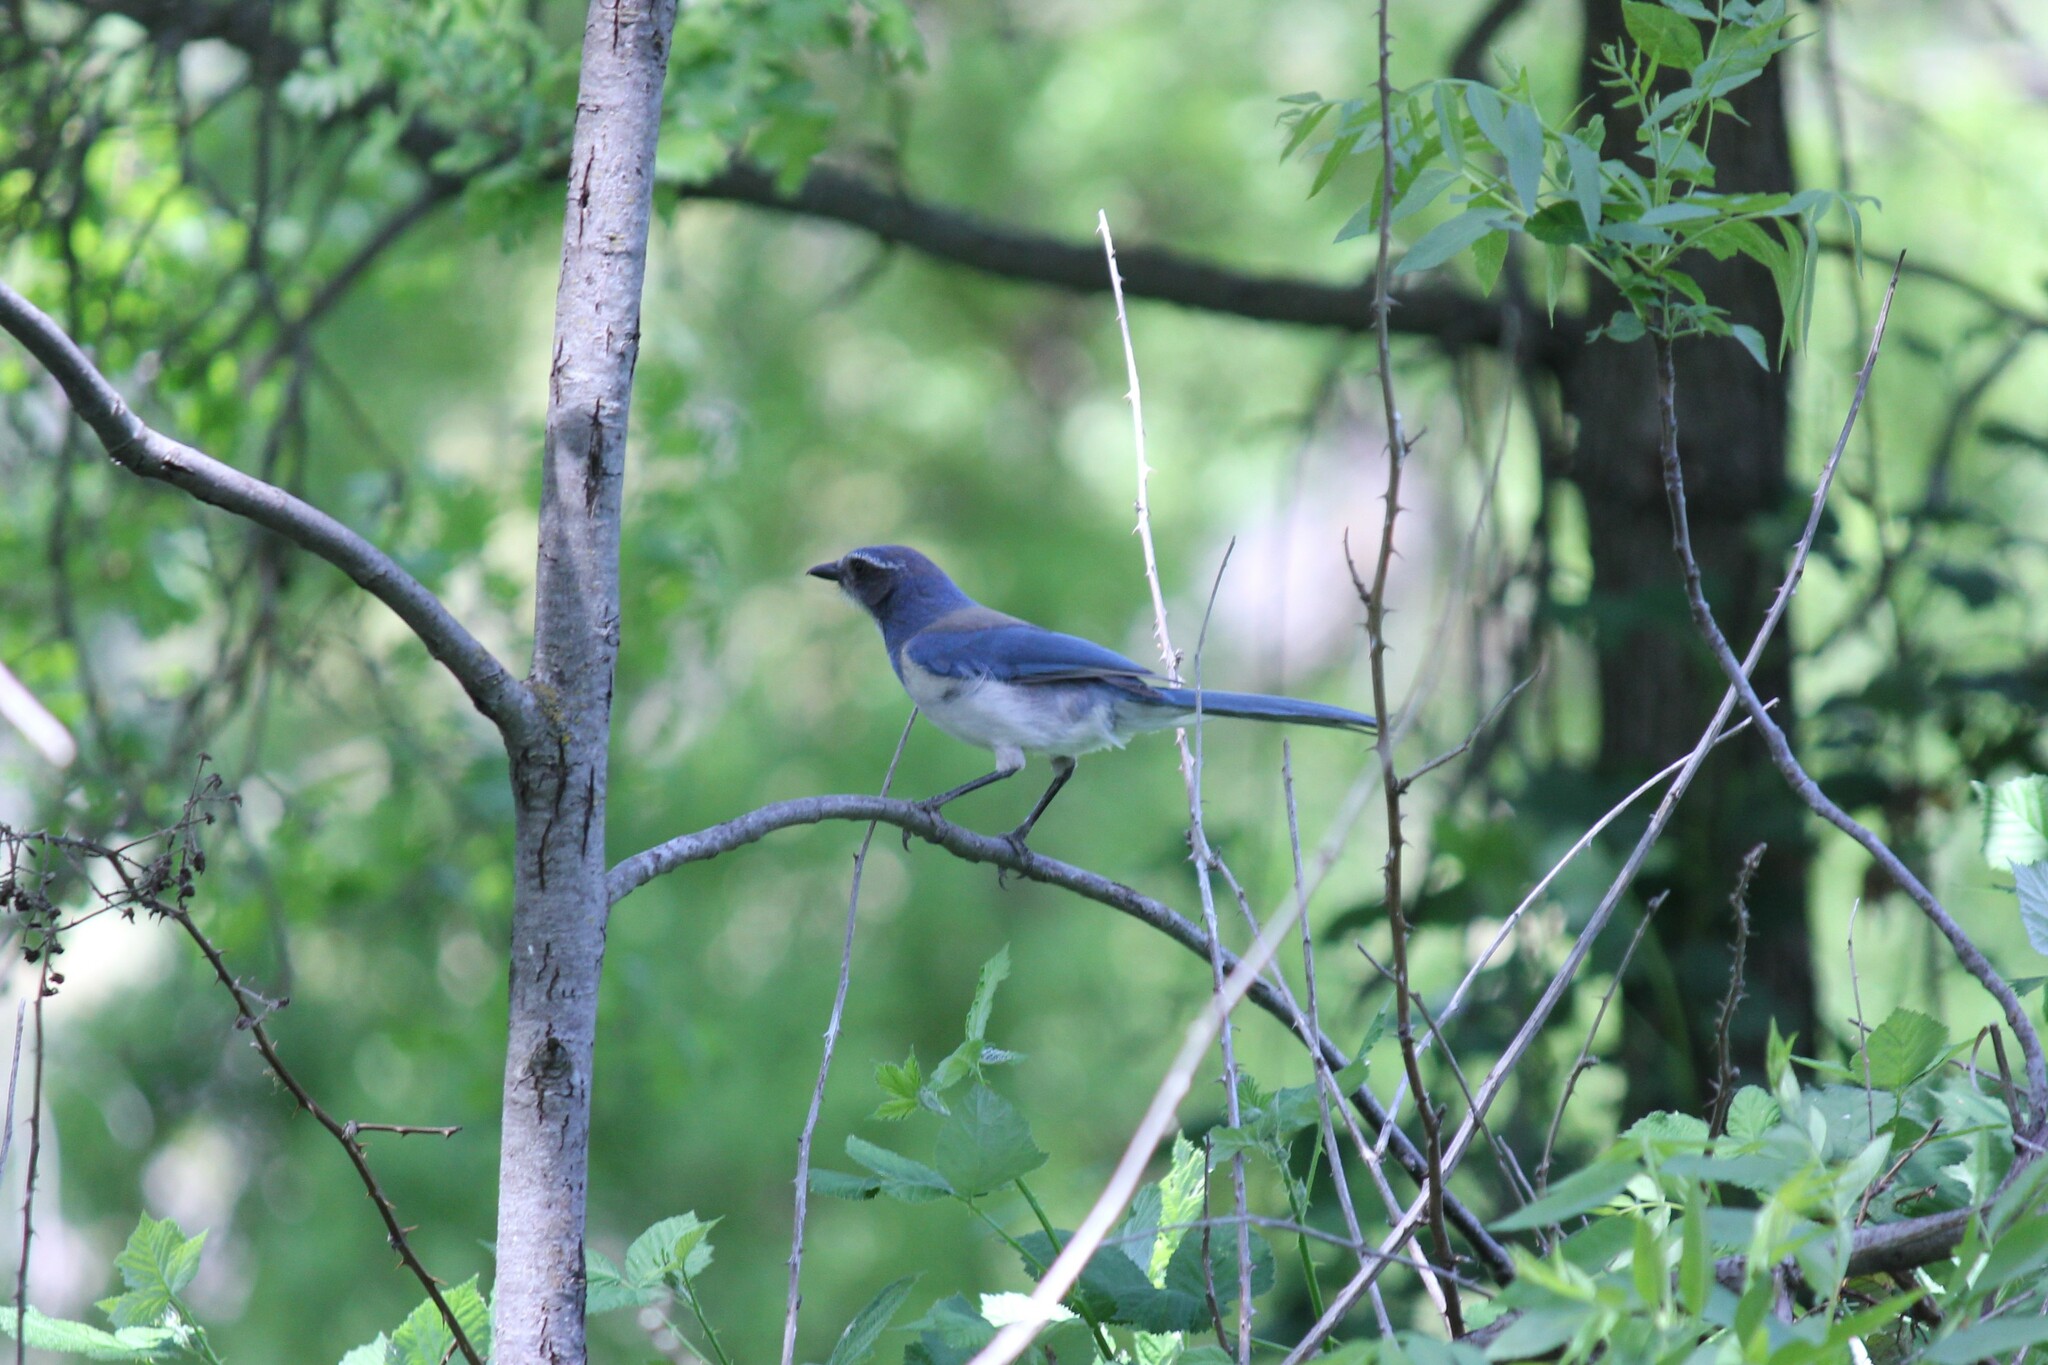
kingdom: Animalia
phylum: Chordata
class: Aves
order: Passeriformes
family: Corvidae
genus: Aphelocoma
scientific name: Aphelocoma californica
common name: California scrub-jay
